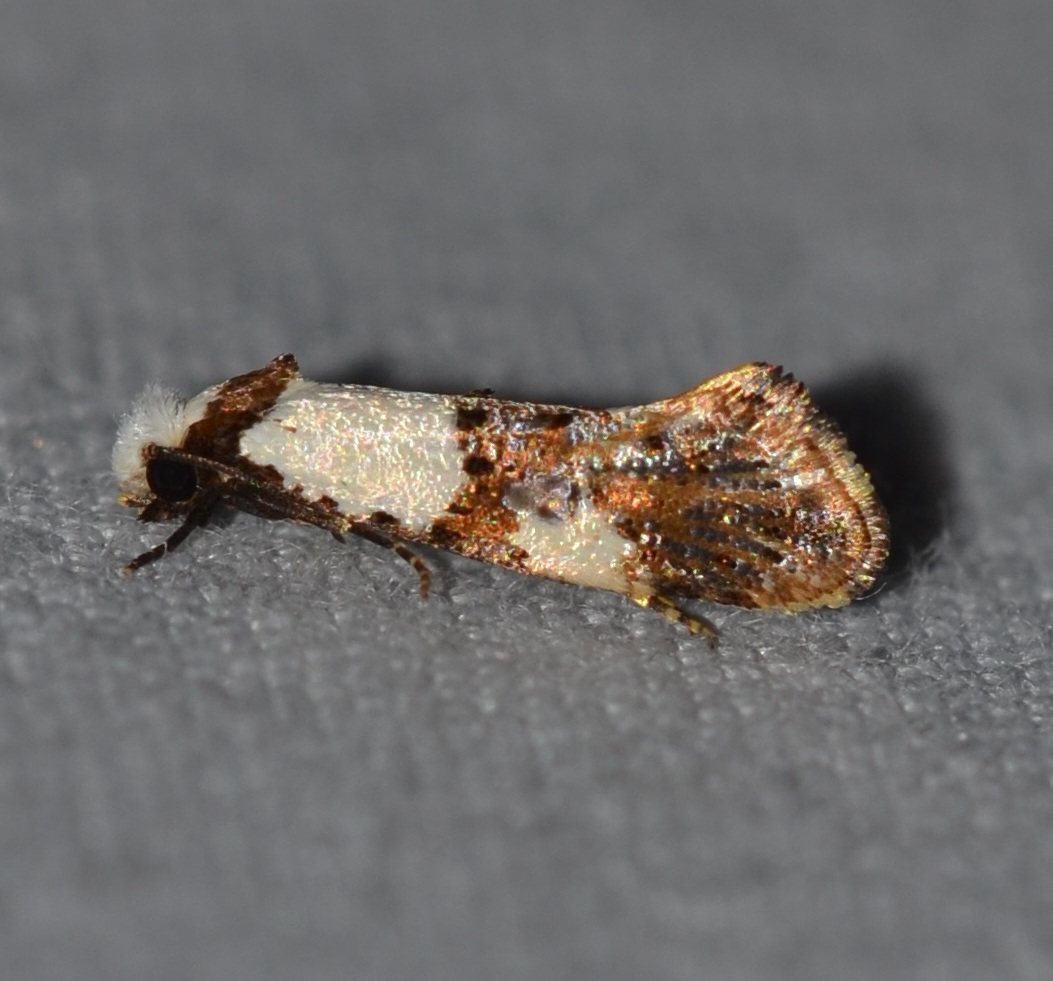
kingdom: Animalia
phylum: Arthropoda
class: Insecta
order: Lepidoptera
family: Tineidae
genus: Monopis
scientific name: Monopis meliorella
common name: Blotched monopis moth
